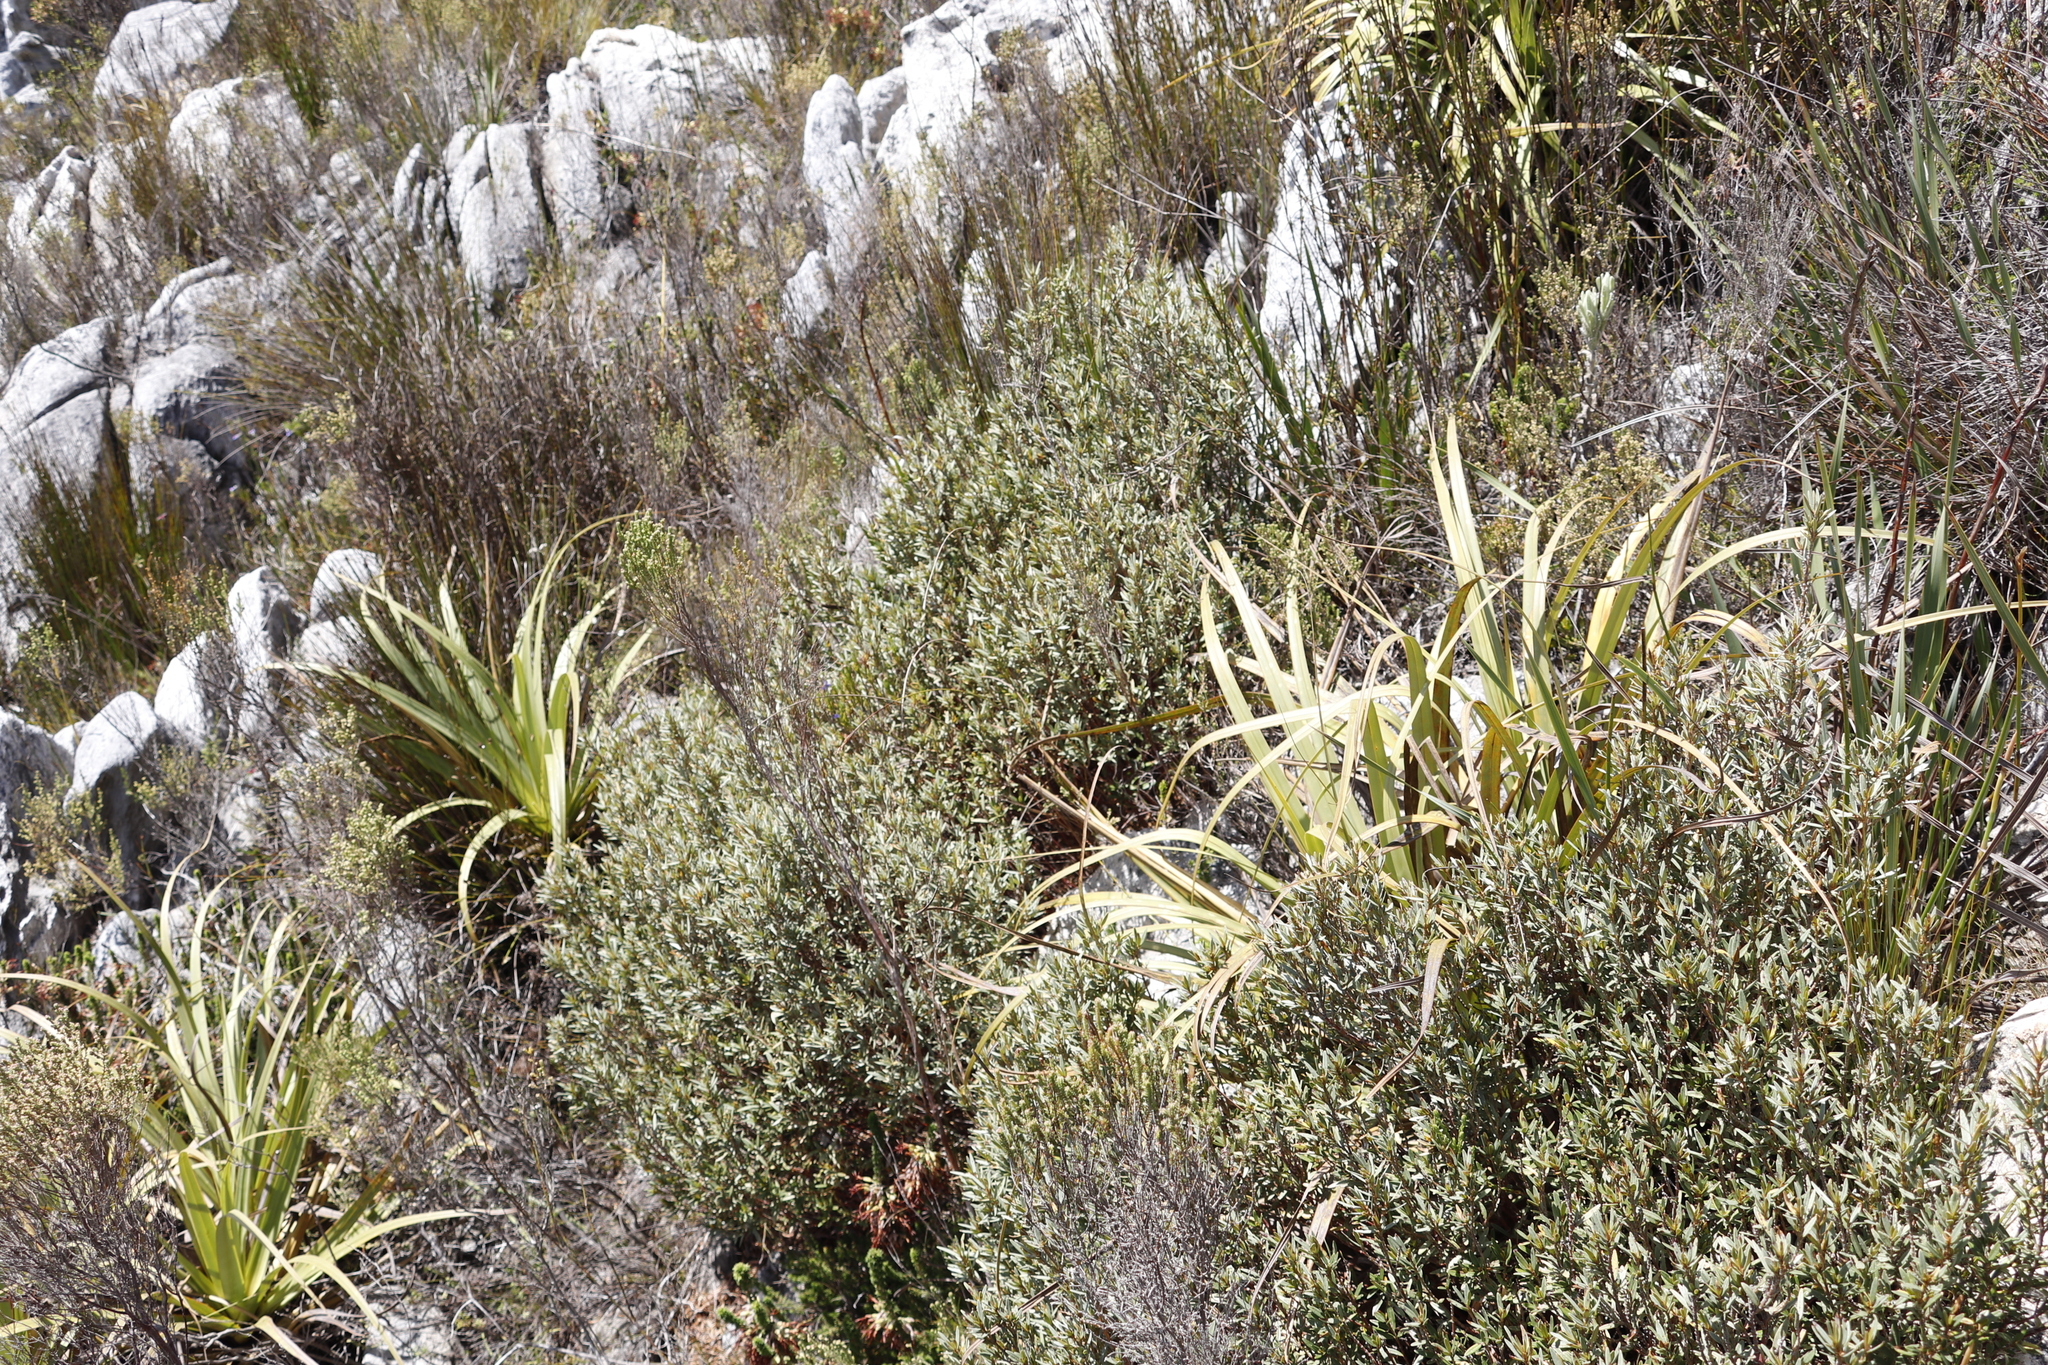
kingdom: Plantae
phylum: Tracheophyta
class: Magnoliopsida
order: Cornales
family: Grubbiaceae
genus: Grubbia
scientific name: Grubbia tomentosa
